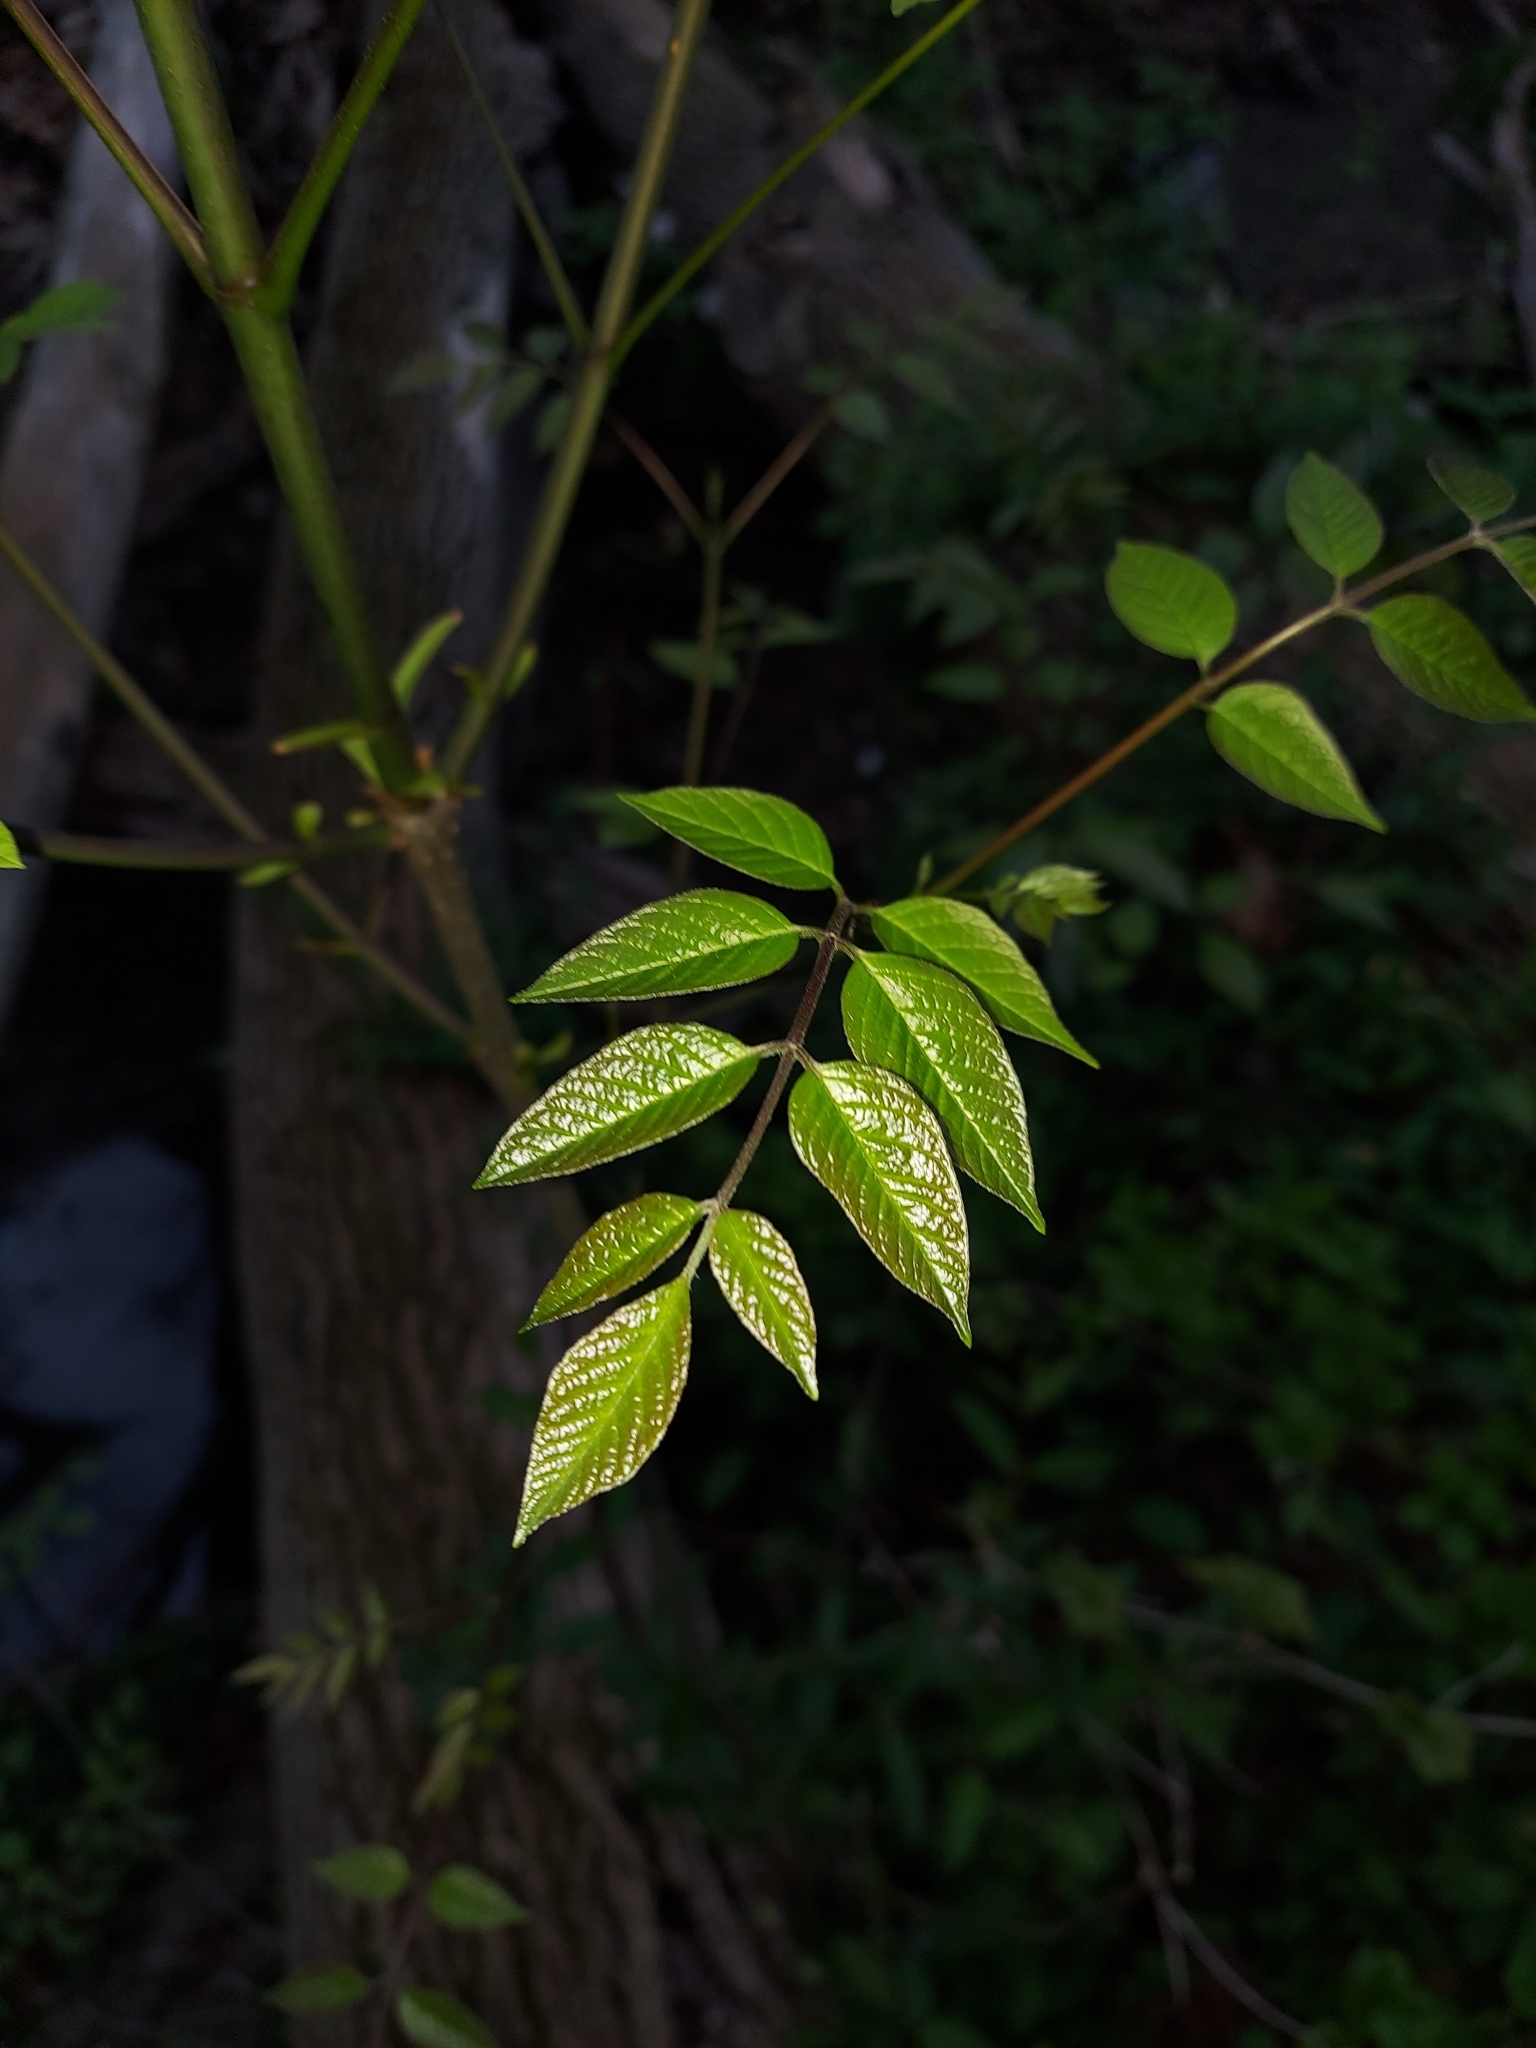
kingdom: Plantae
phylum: Tracheophyta
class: Magnoliopsida
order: Dipsacales
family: Viburnaceae
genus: Sambucus
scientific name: Sambucus canadensis
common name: American elder
